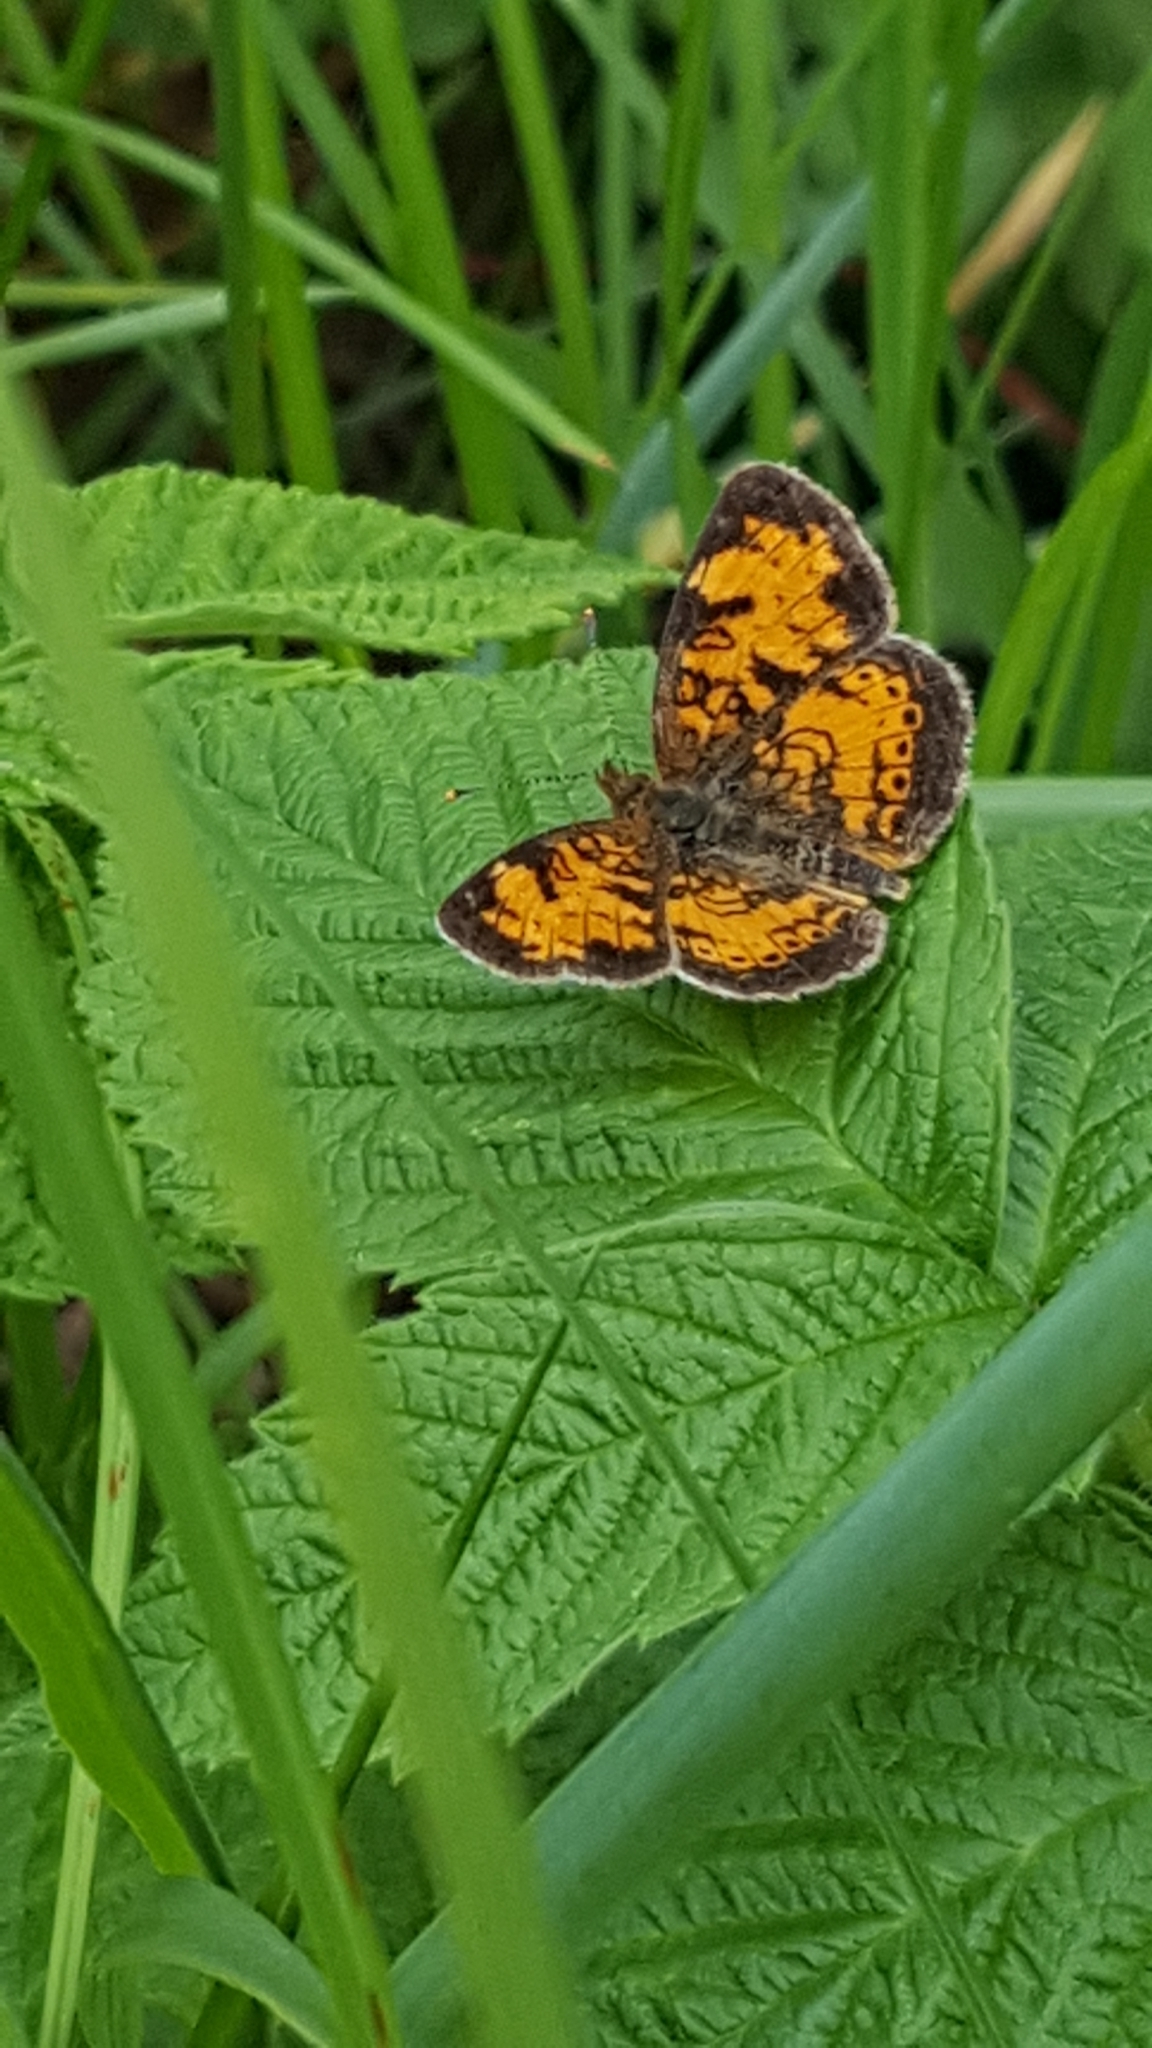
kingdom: Animalia
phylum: Arthropoda
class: Insecta
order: Lepidoptera
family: Nymphalidae
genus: Phyciodes
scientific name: Phyciodes tharos
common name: Pearl crescent
